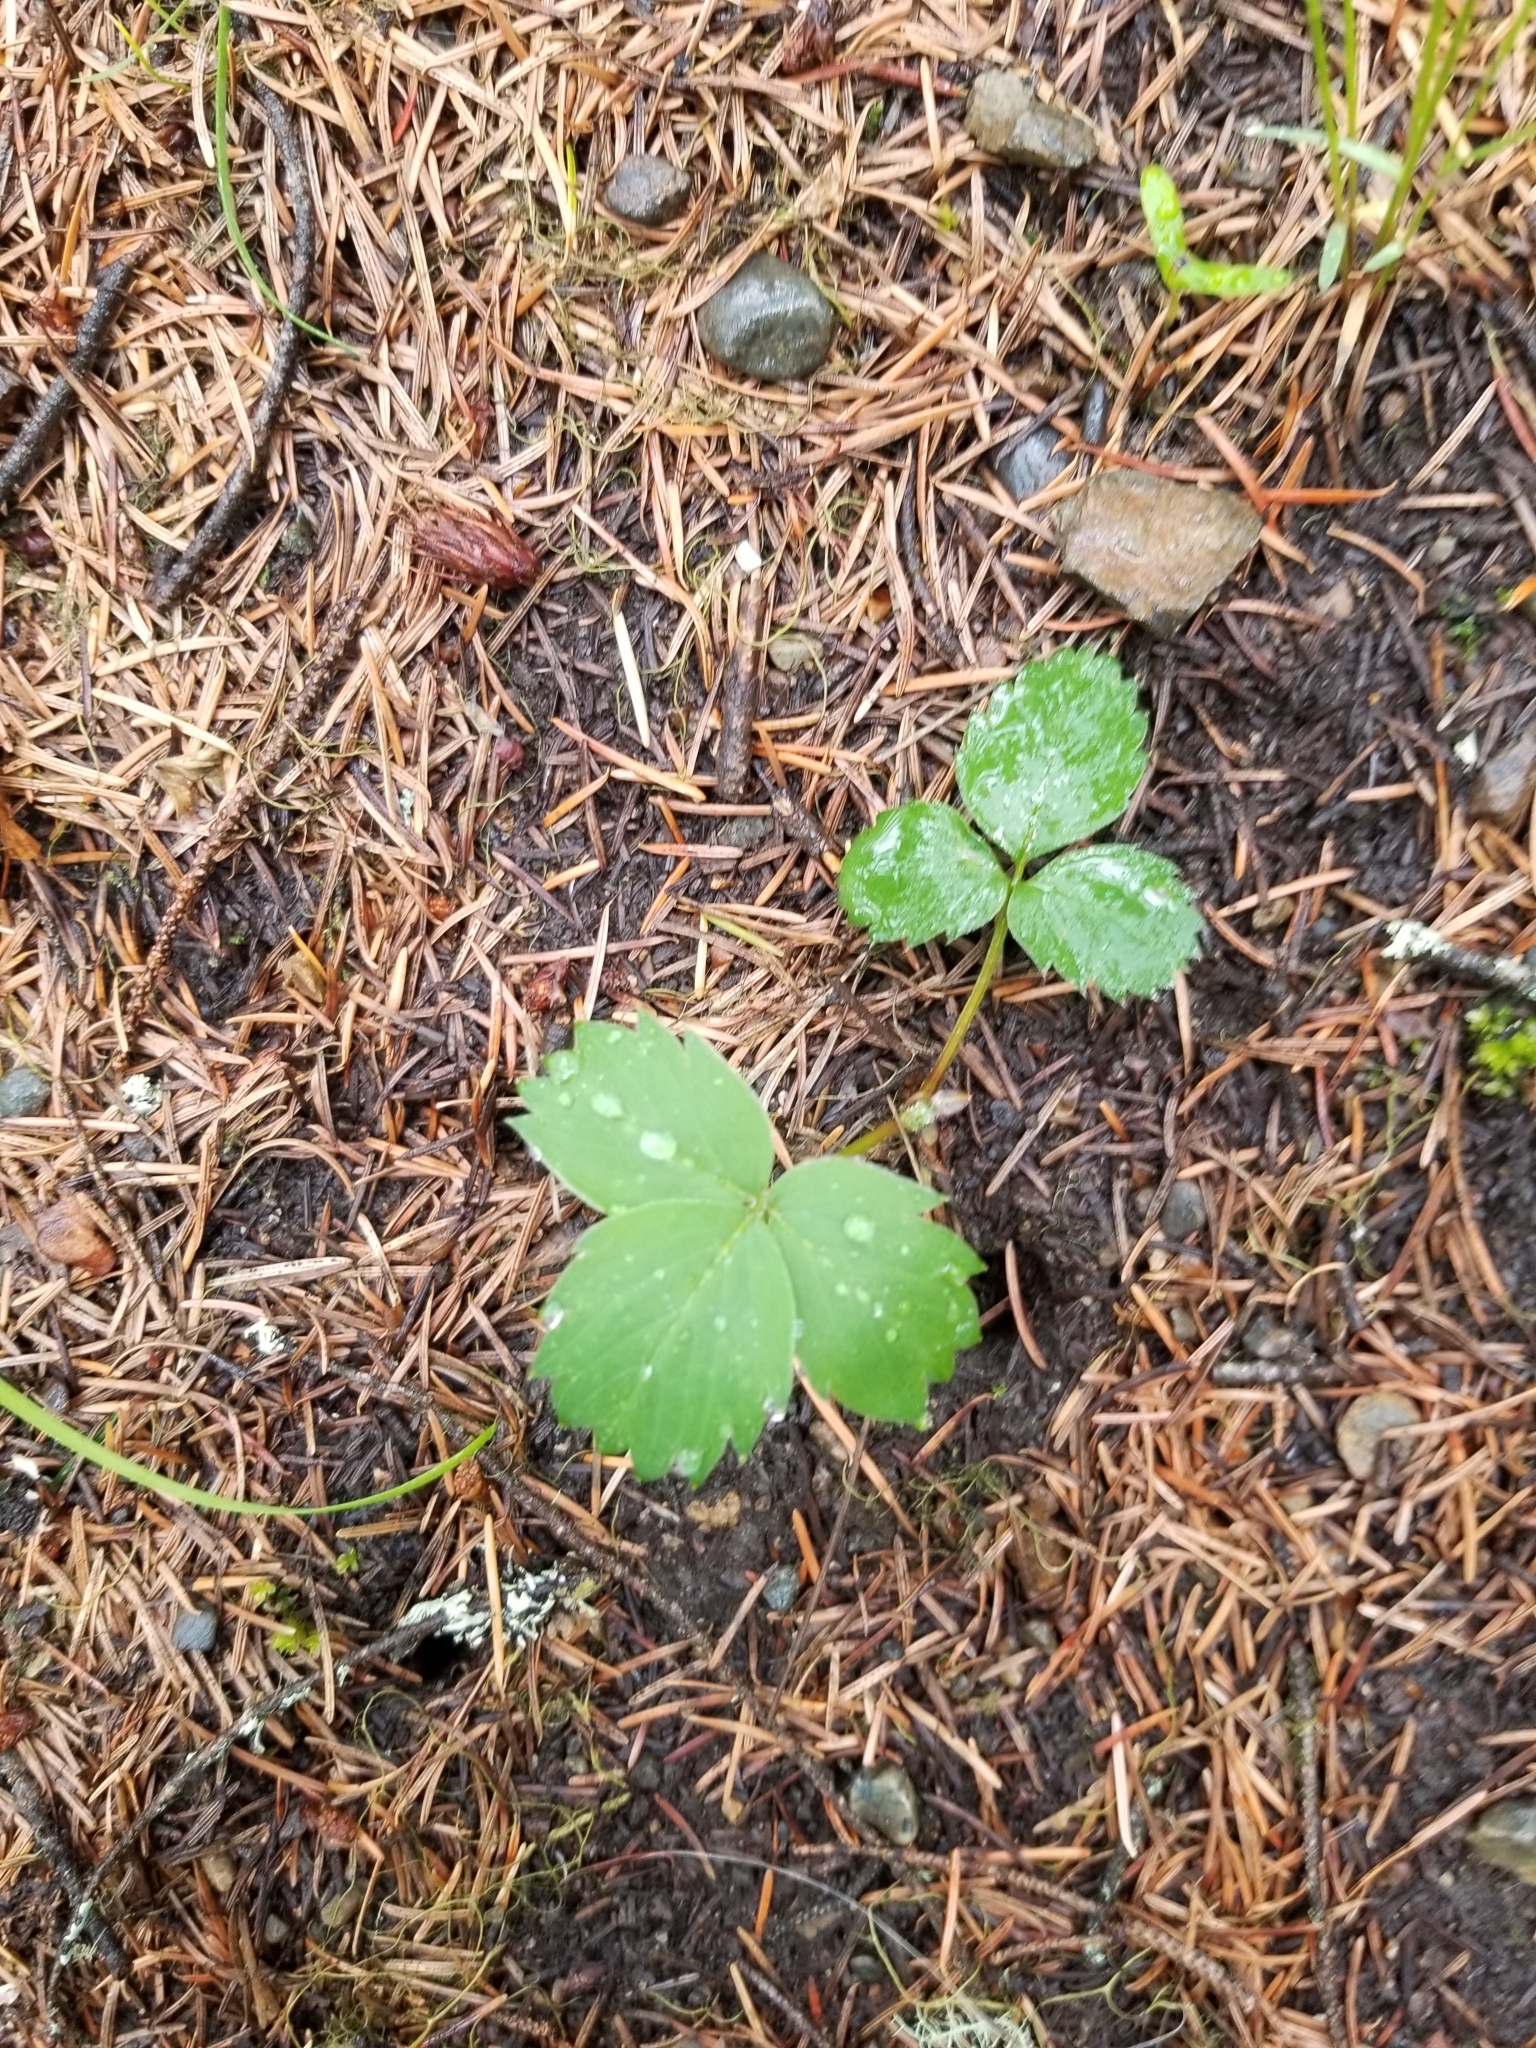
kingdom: Plantae
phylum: Tracheophyta
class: Magnoliopsida
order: Rosales
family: Rosaceae
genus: Fragaria
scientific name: Fragaria virginiana
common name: Thickleaved wild strawberry
